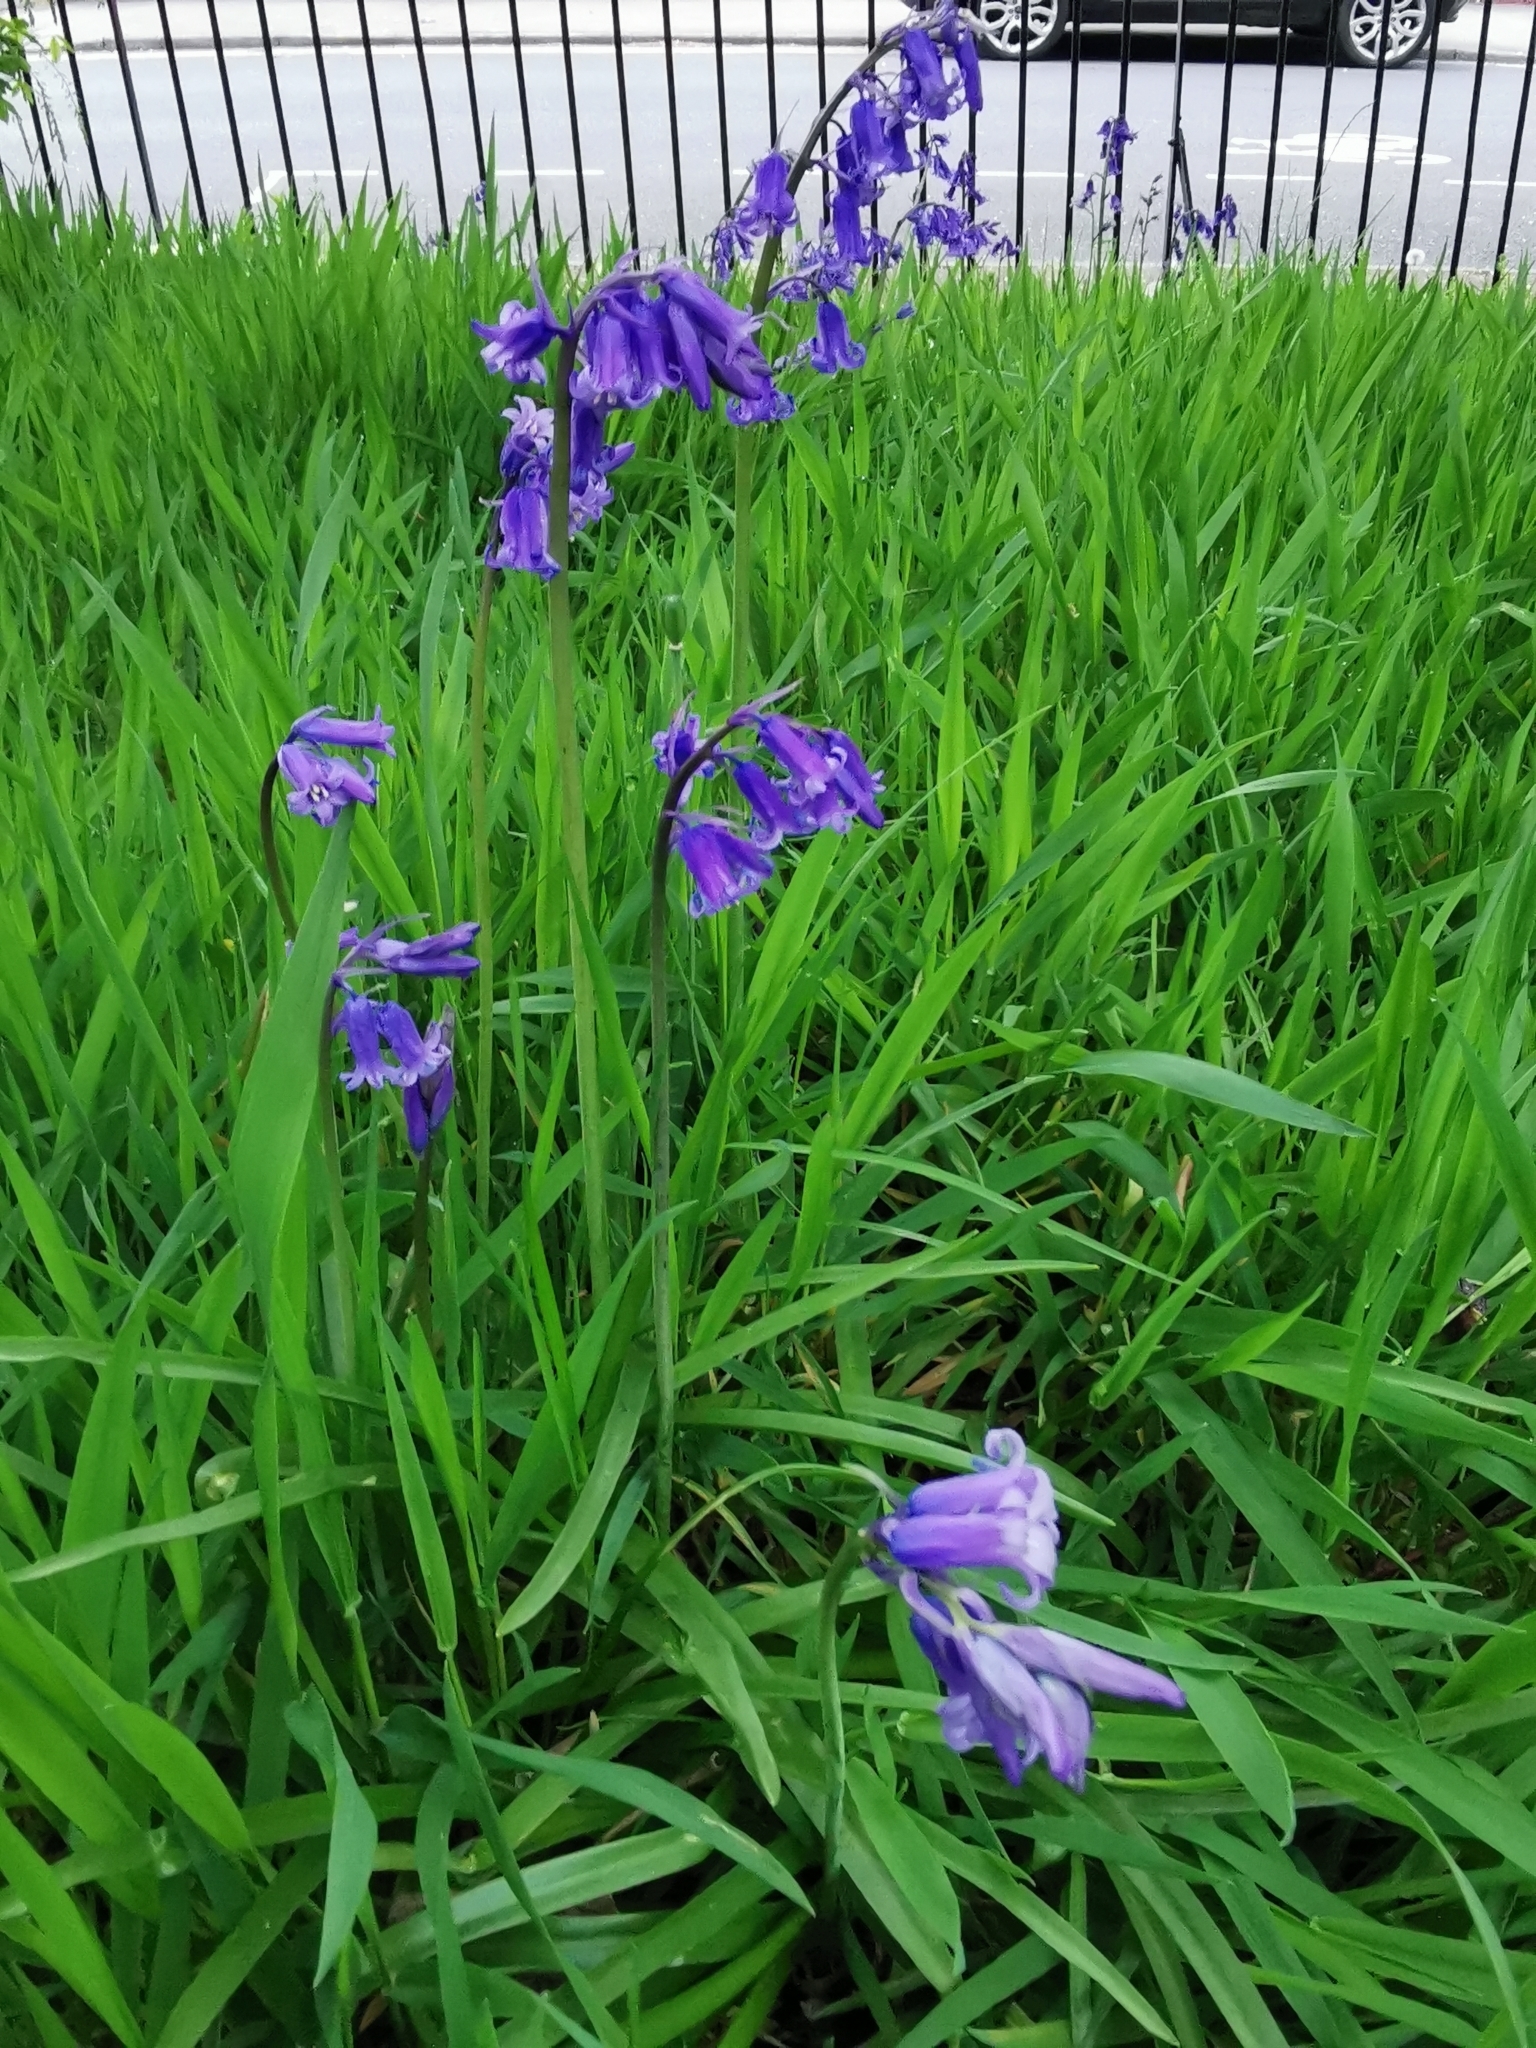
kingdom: Plantae
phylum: Tracheophyta
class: Liliopsida
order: Asparagales
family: Asparagaceae
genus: Hyacinthoides
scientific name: Hyacinthoides non-scripta
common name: Bluebell
